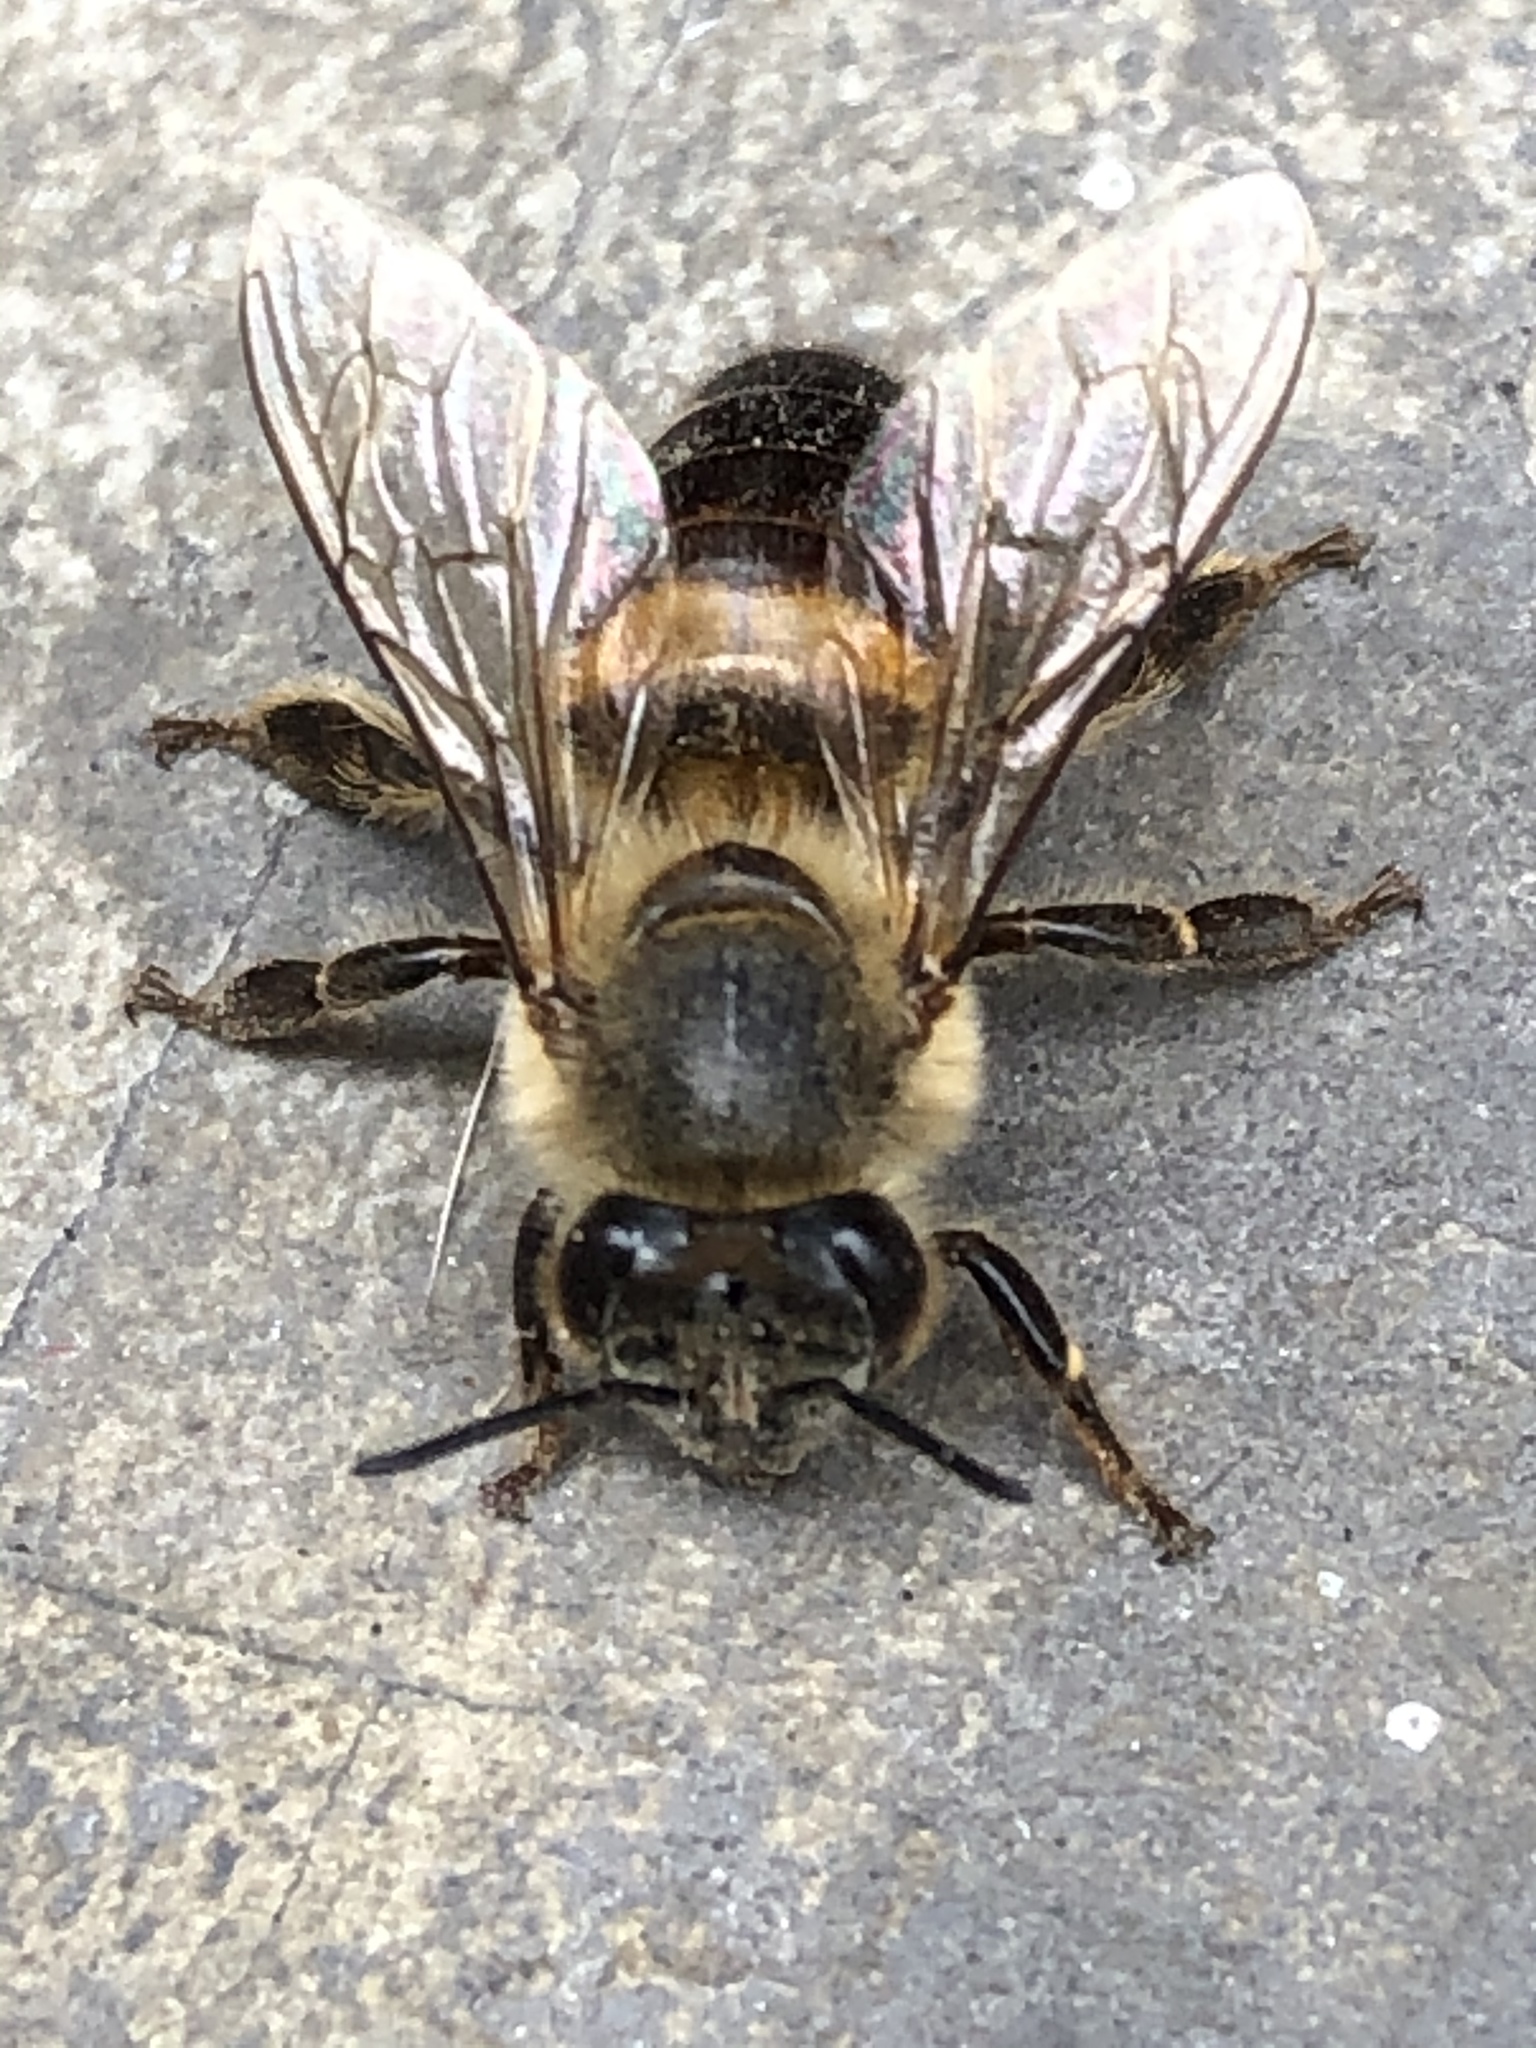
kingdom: Animalia
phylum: Arthropoda
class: Insecta
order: Hymenoptera
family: Apidae
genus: Apis
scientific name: Apis mellifera
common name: Honey bee
